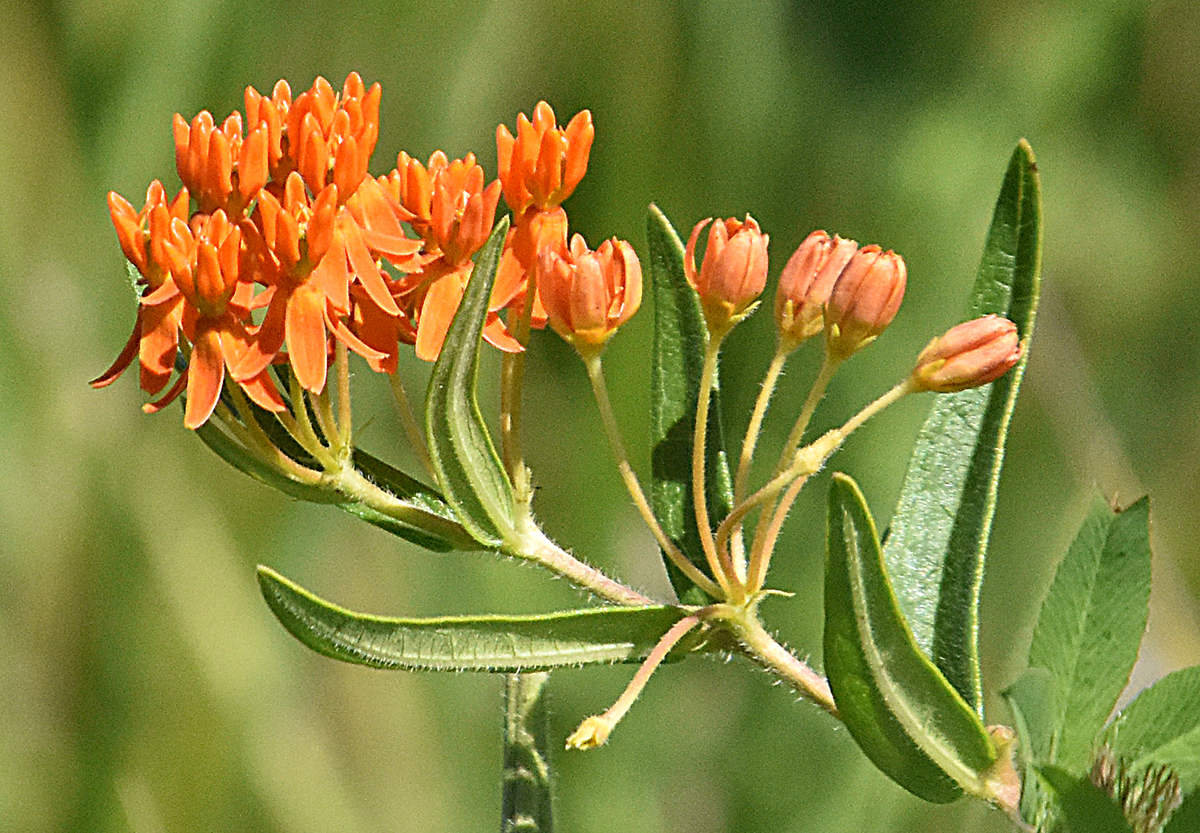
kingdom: Plantae
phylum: Tracheophyta
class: Magnoliopsida
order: Gentianales
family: Apocynaceae
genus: Asclepias
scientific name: Asclepias tuberosa
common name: Butterfly milkweed
